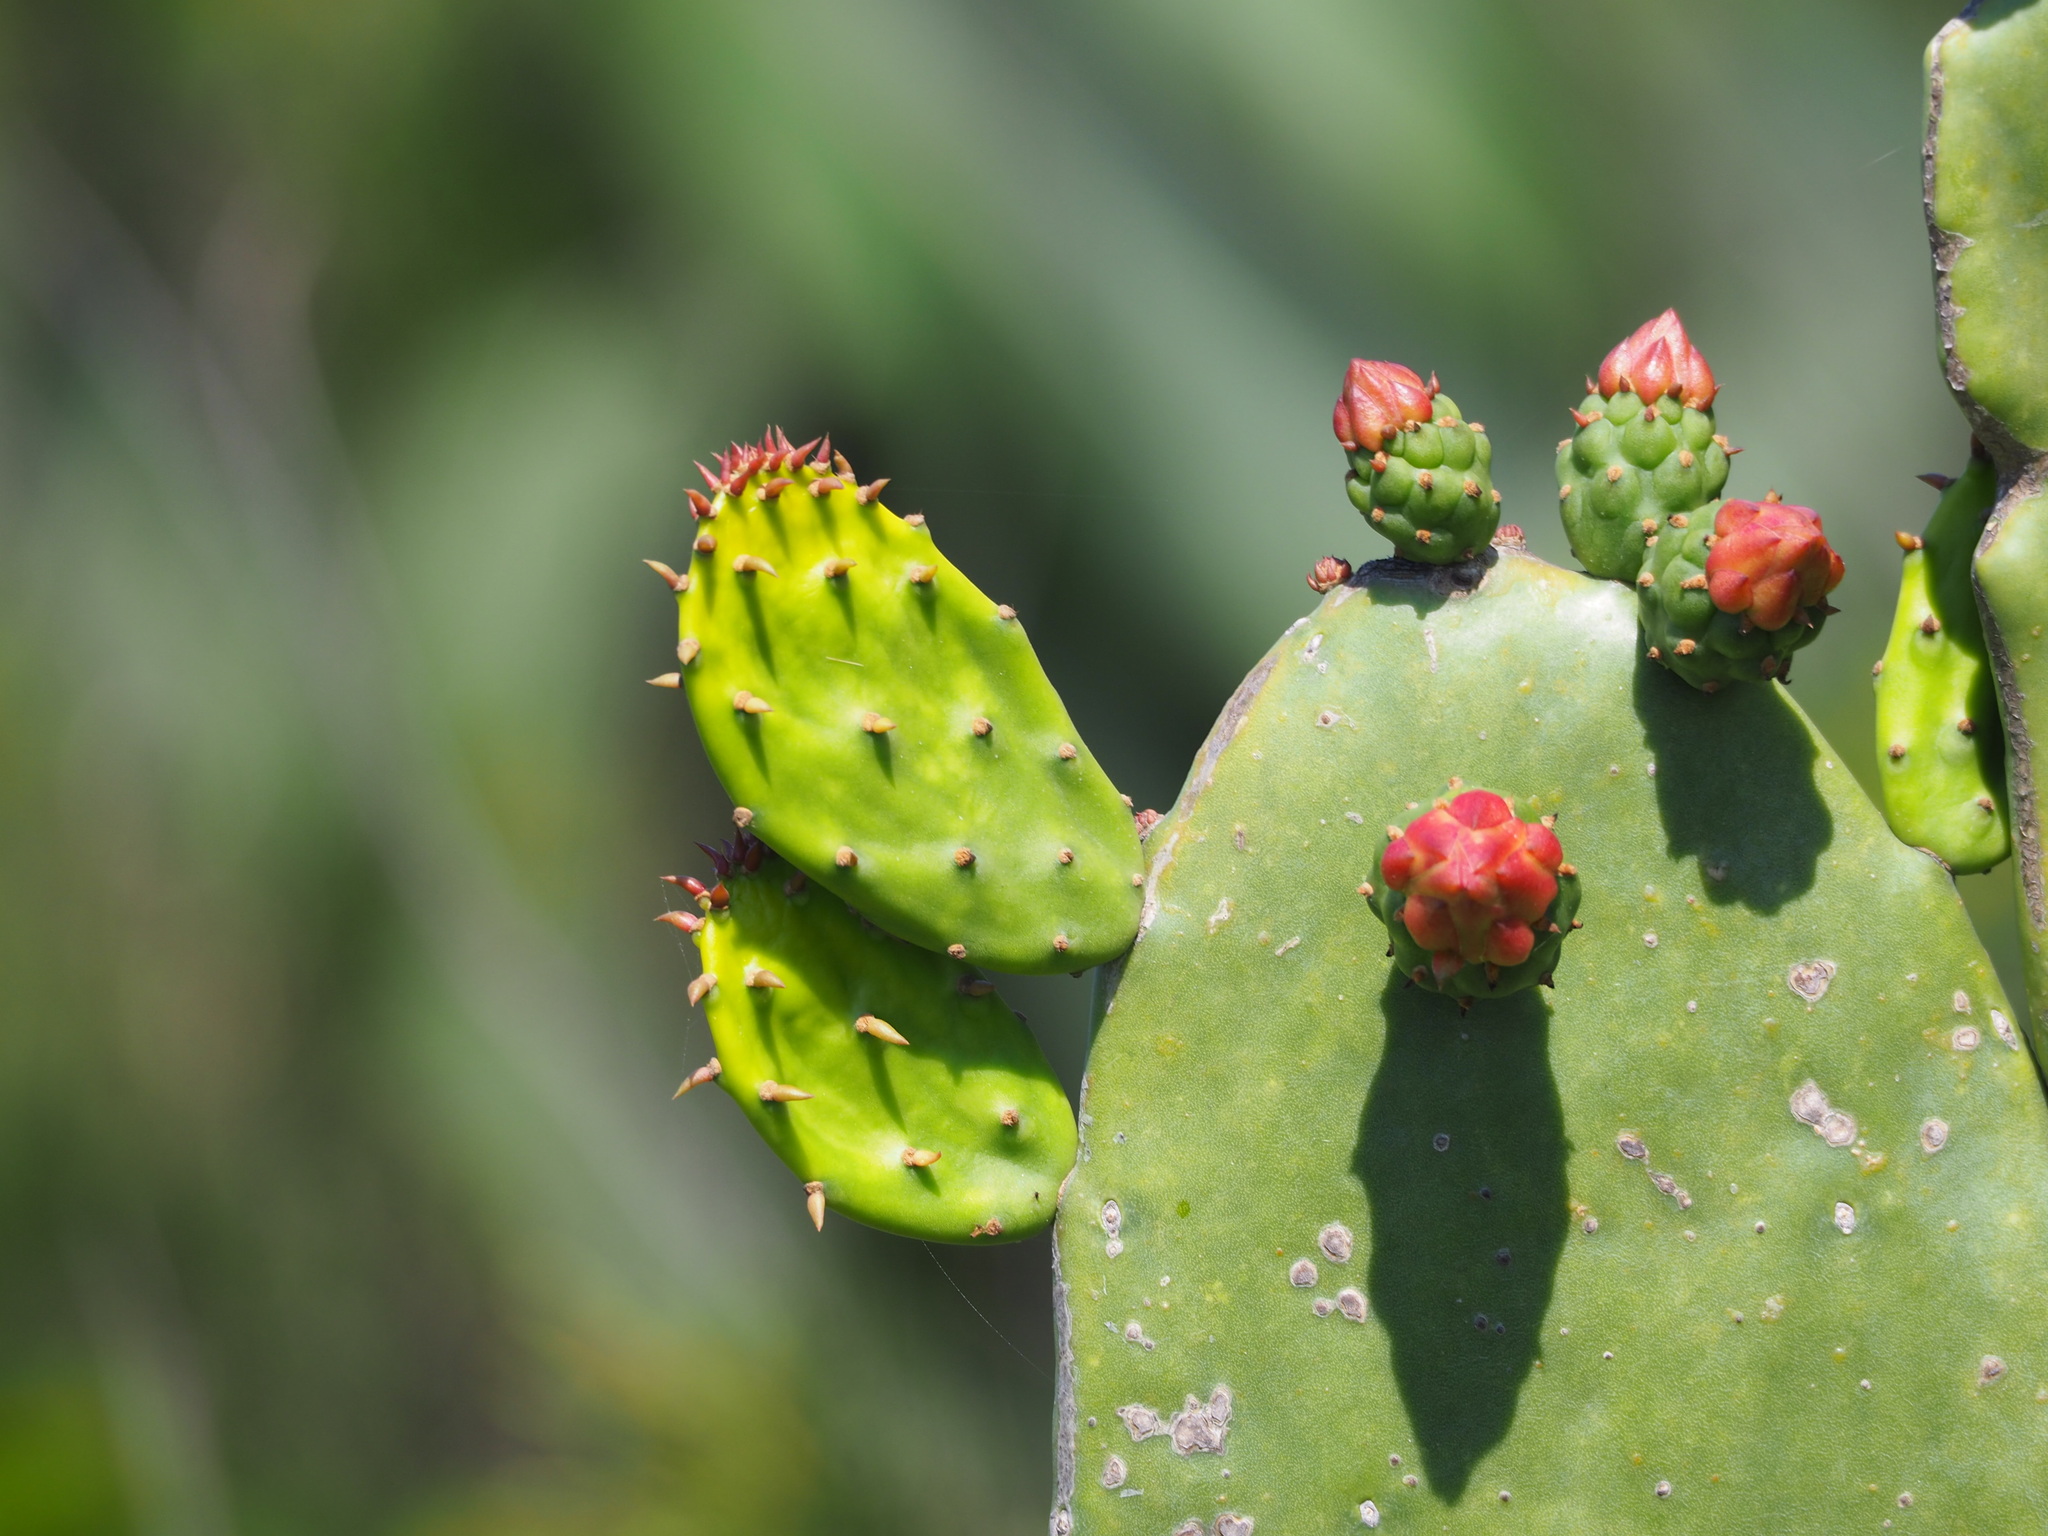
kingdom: Plantae
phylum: Tracheophyta
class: Magnoliopsida
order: Caryophyllales
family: Cactaceae
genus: Opuntia
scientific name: Opuntia cochenillifera
